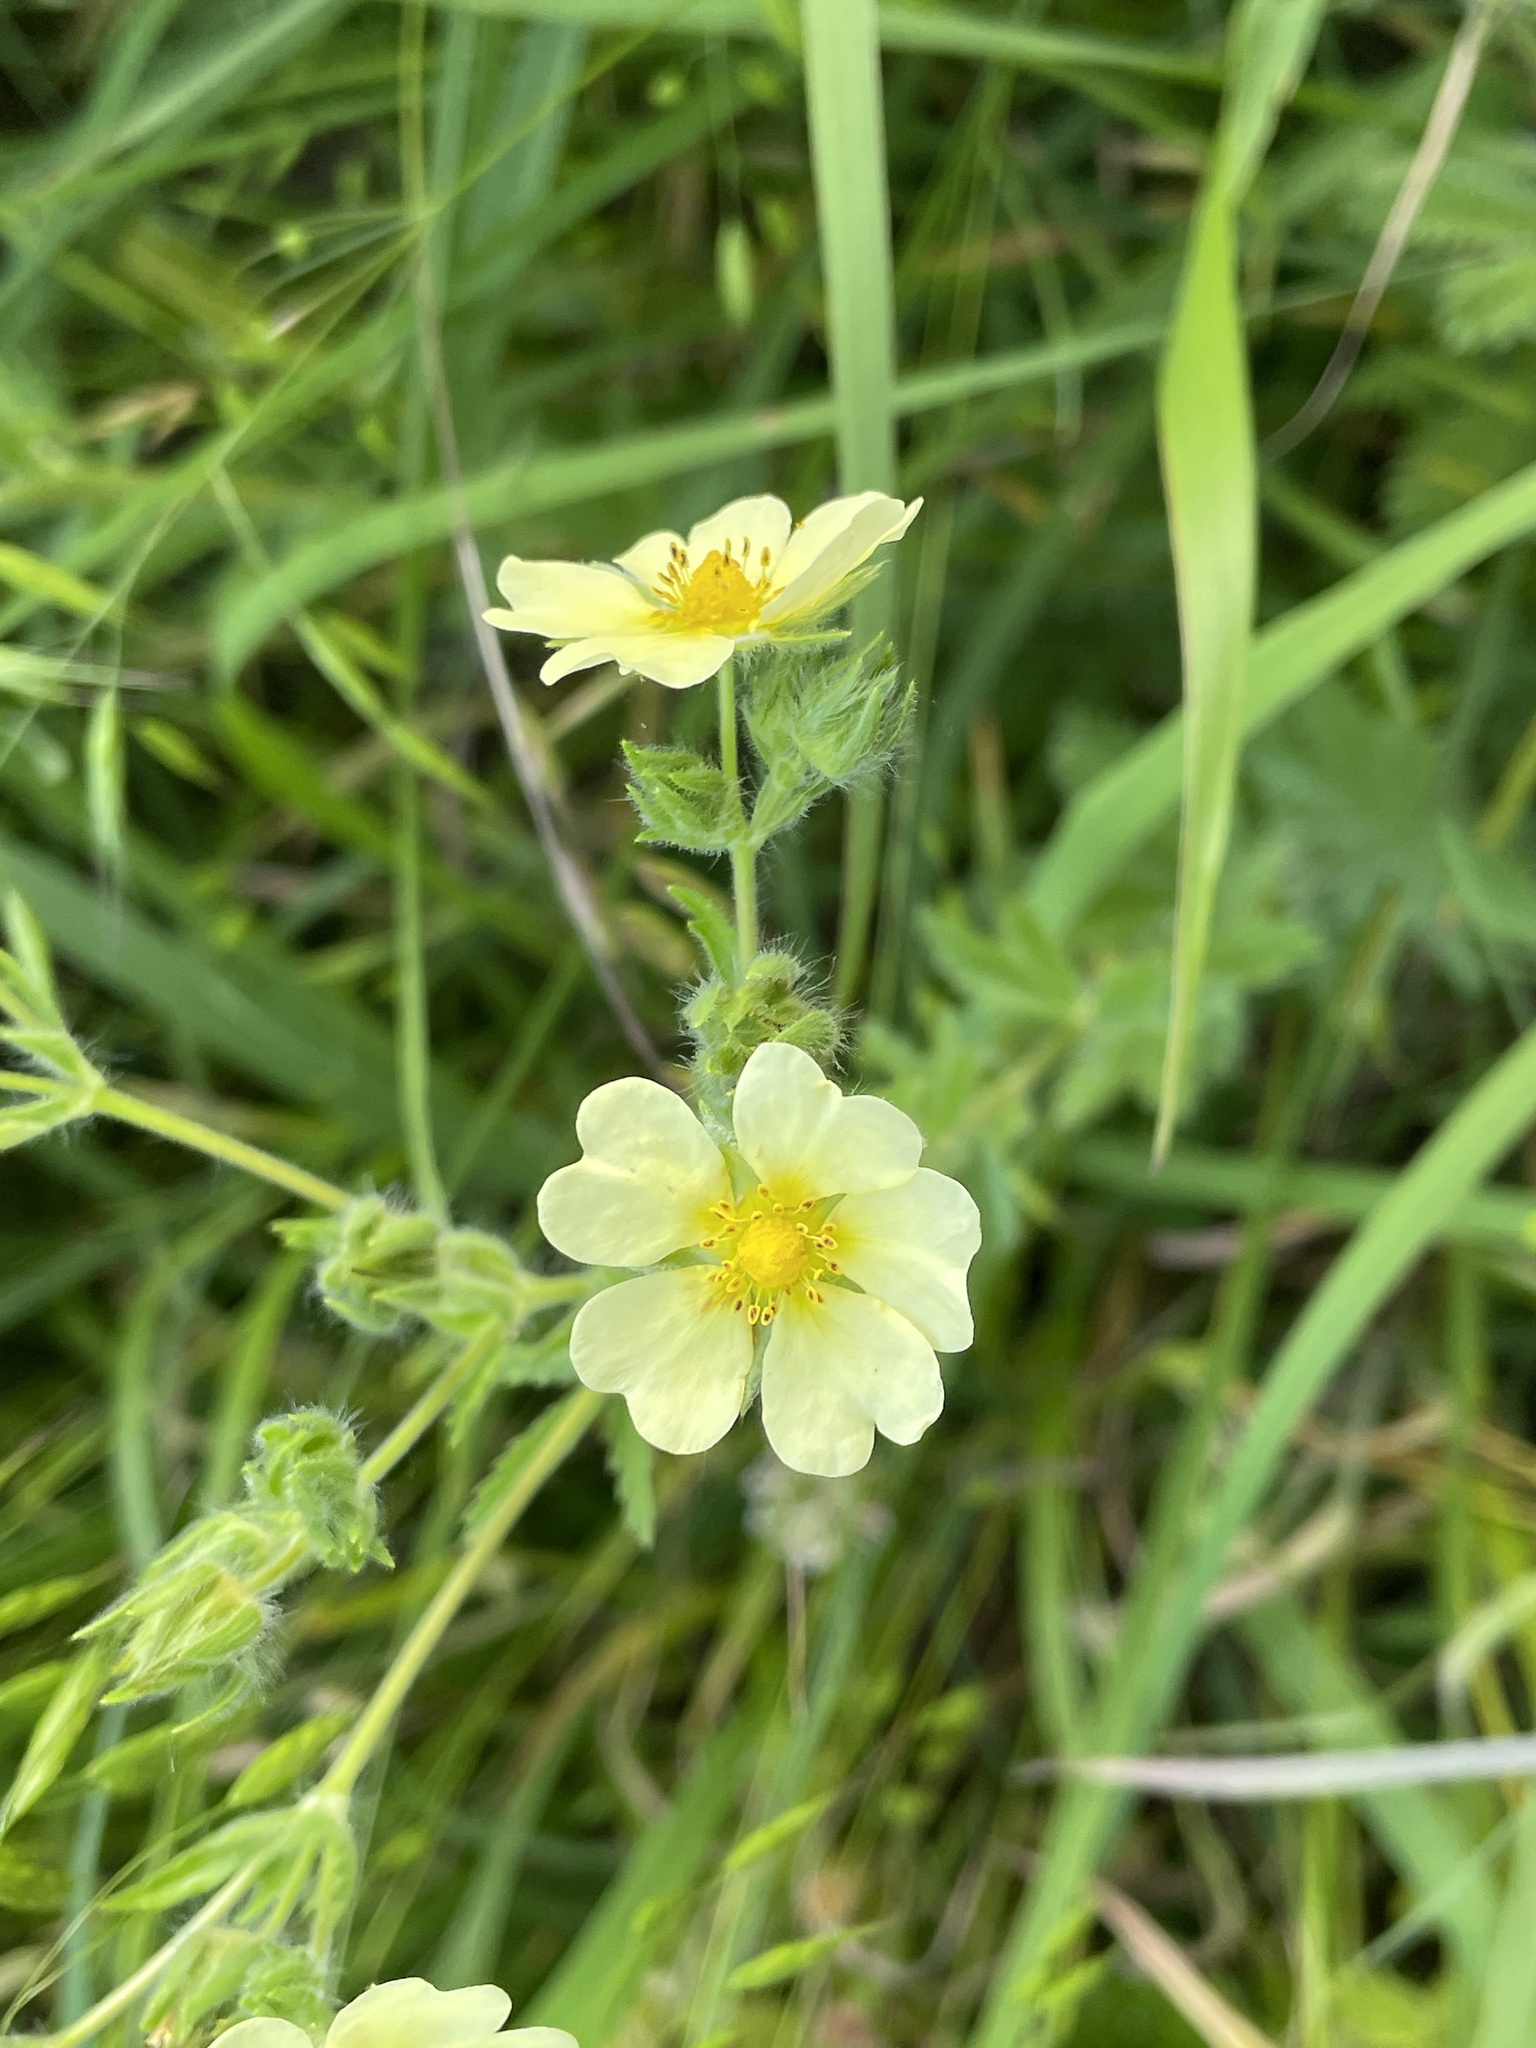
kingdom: Plantae
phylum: Tracheophyta
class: Magnoliopsida
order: Rosales
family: Rosaceae
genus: Potentilla
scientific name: Potentilla recta
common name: Sulphur cinquefoil
